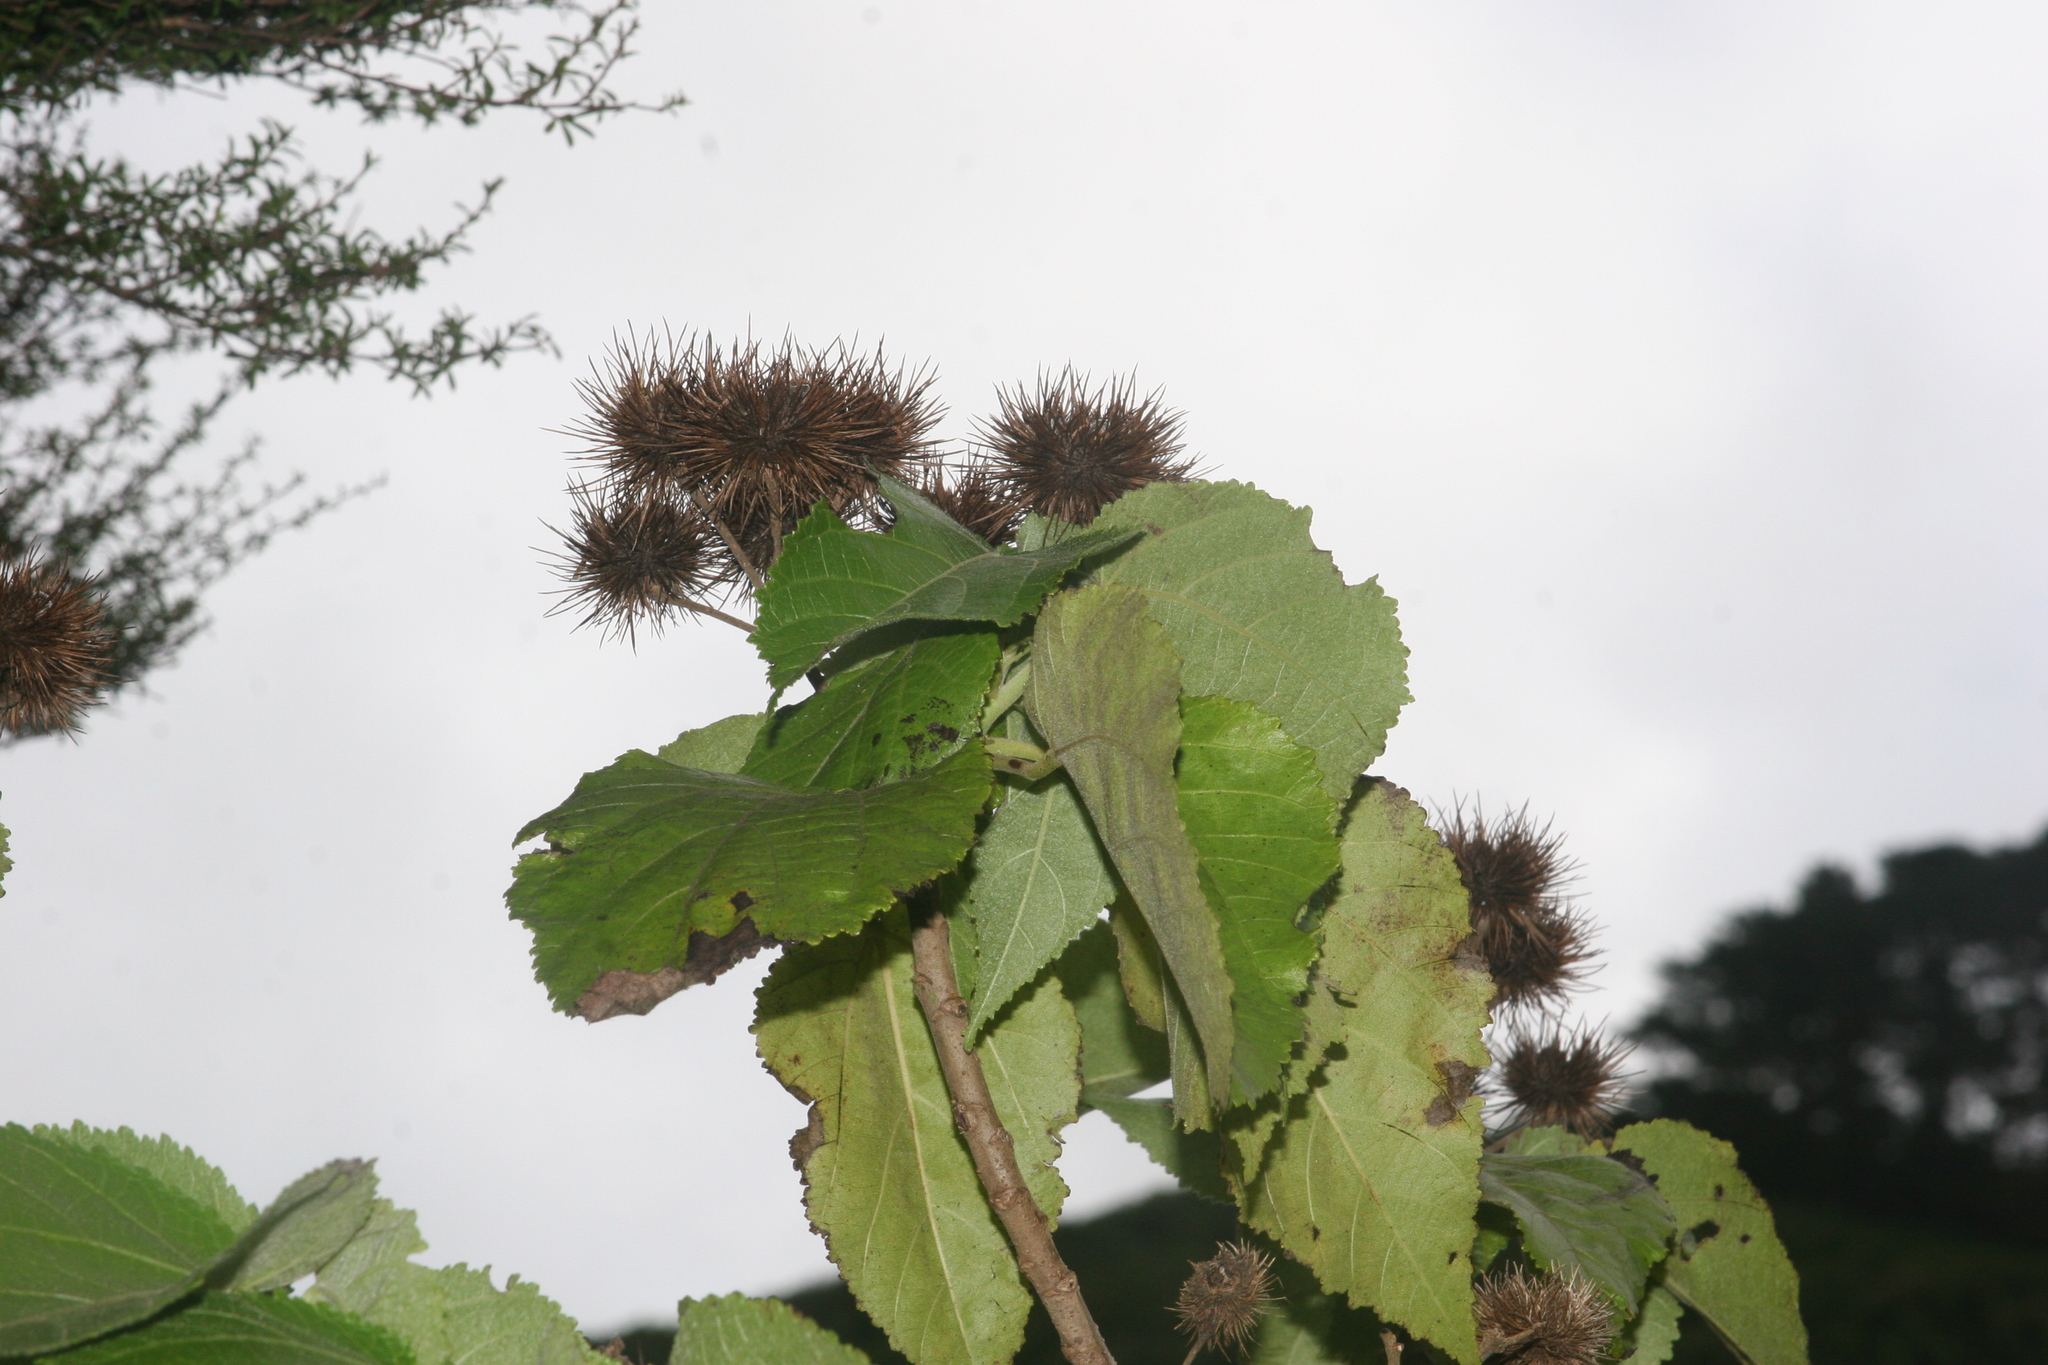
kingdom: Plantae
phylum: Tracheophyta
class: Magnoliopsida
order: Malvales
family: Malvaceae
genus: Entelea
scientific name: Entelea arborescens
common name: New zealand-mulberry
